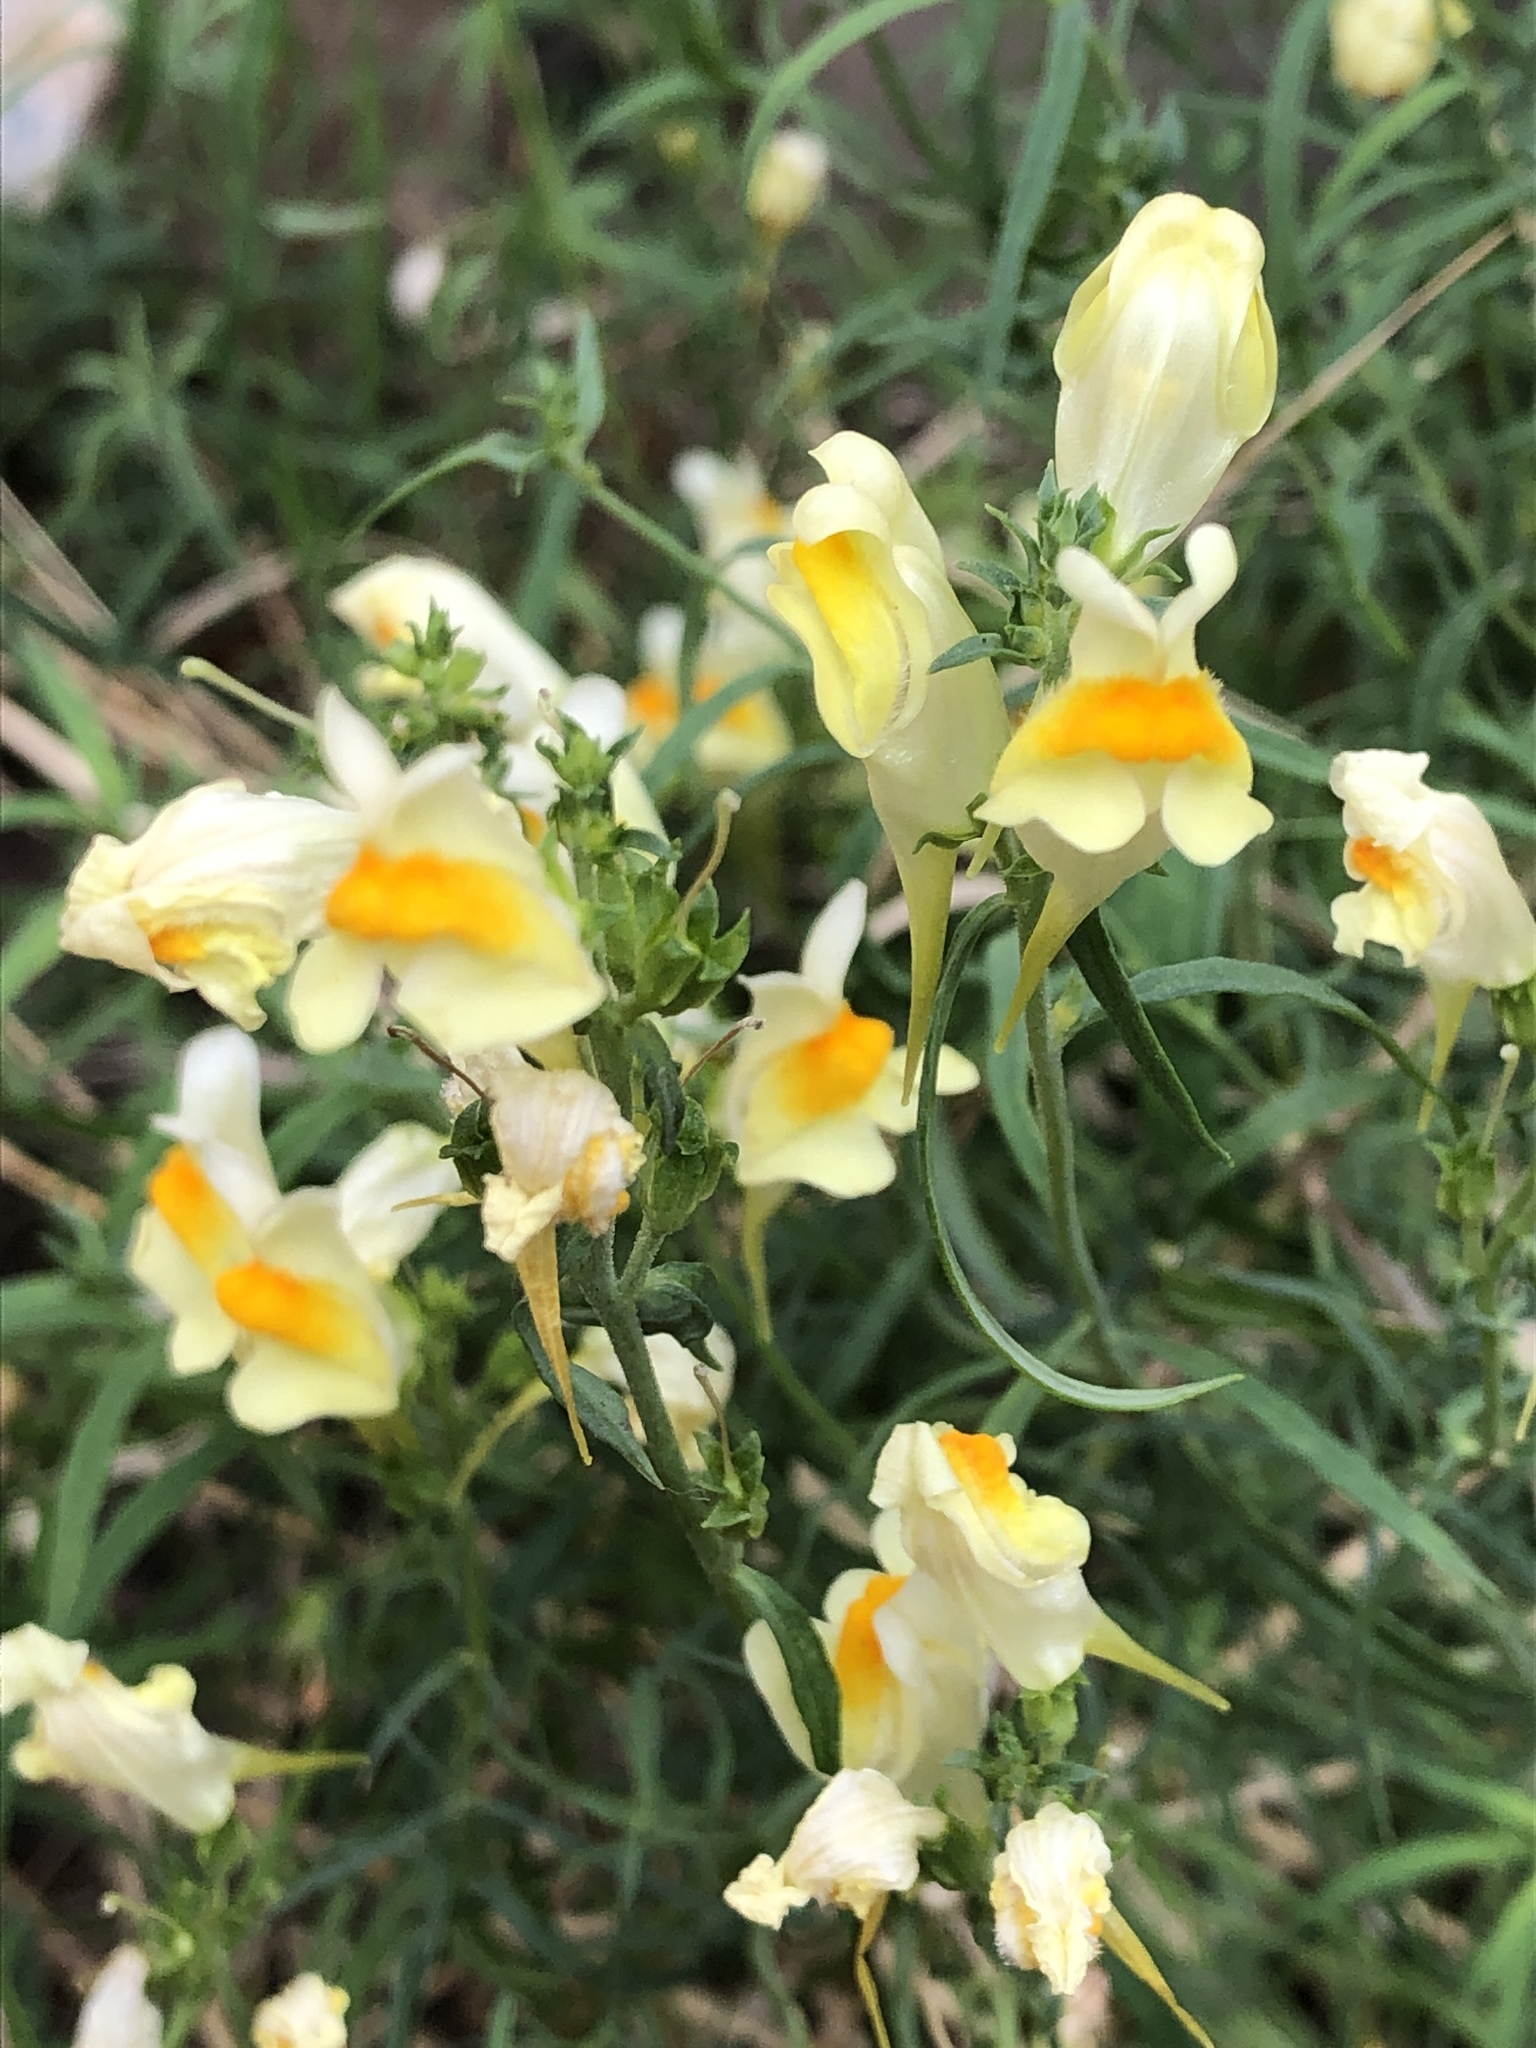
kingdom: Plantae
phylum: Tracheophyta
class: Magnoliopsida
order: Lamiales
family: Plantaginaceae
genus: Linaria
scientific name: Linaria vulgaris
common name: Butter and eggs
